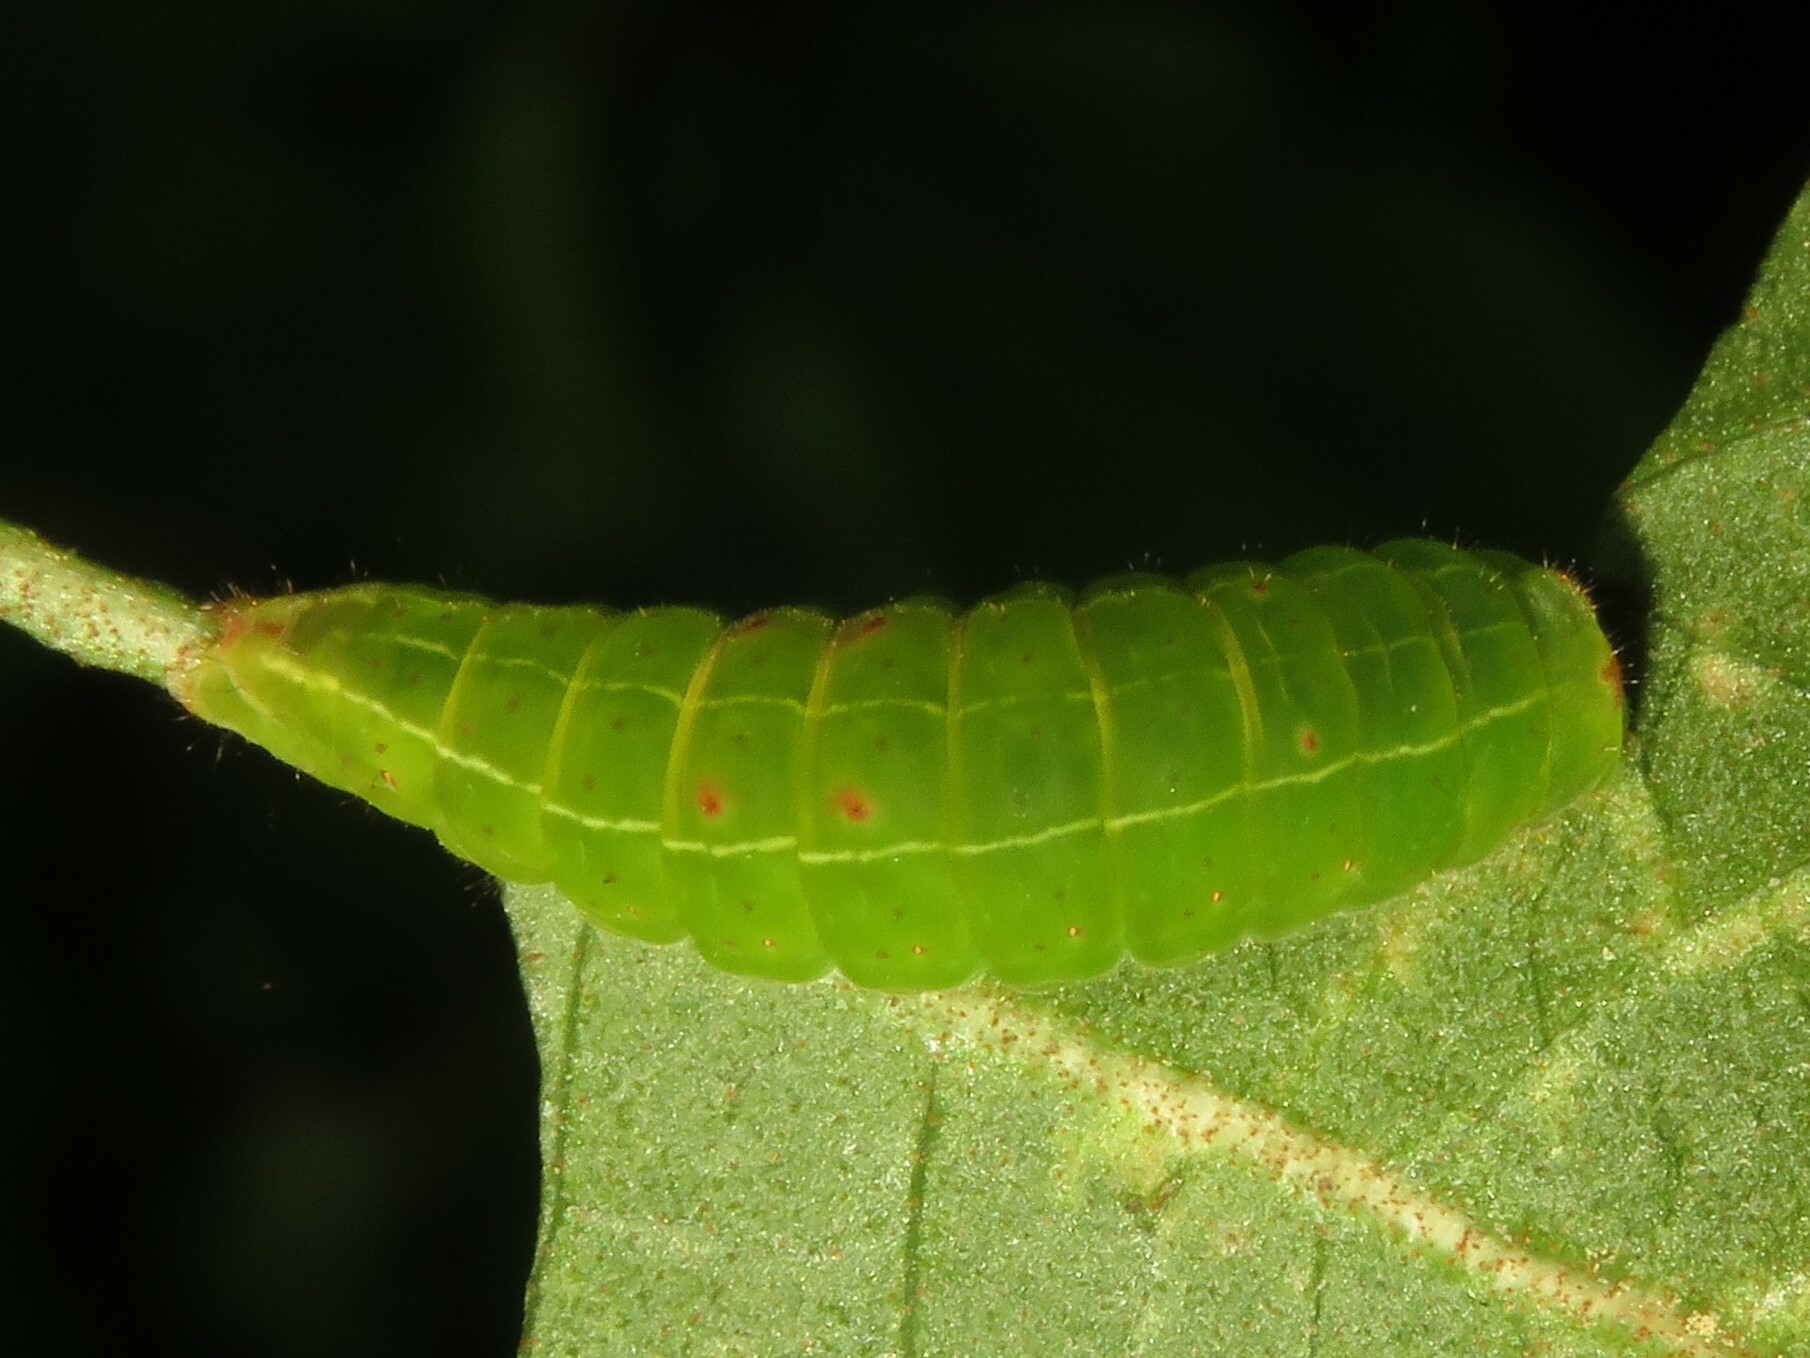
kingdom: Animalia
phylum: Arthropoda
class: Insecta
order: Lepidoptera
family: Noctuidae
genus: Acronicta
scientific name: Acronicta fallax
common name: Green marvel
